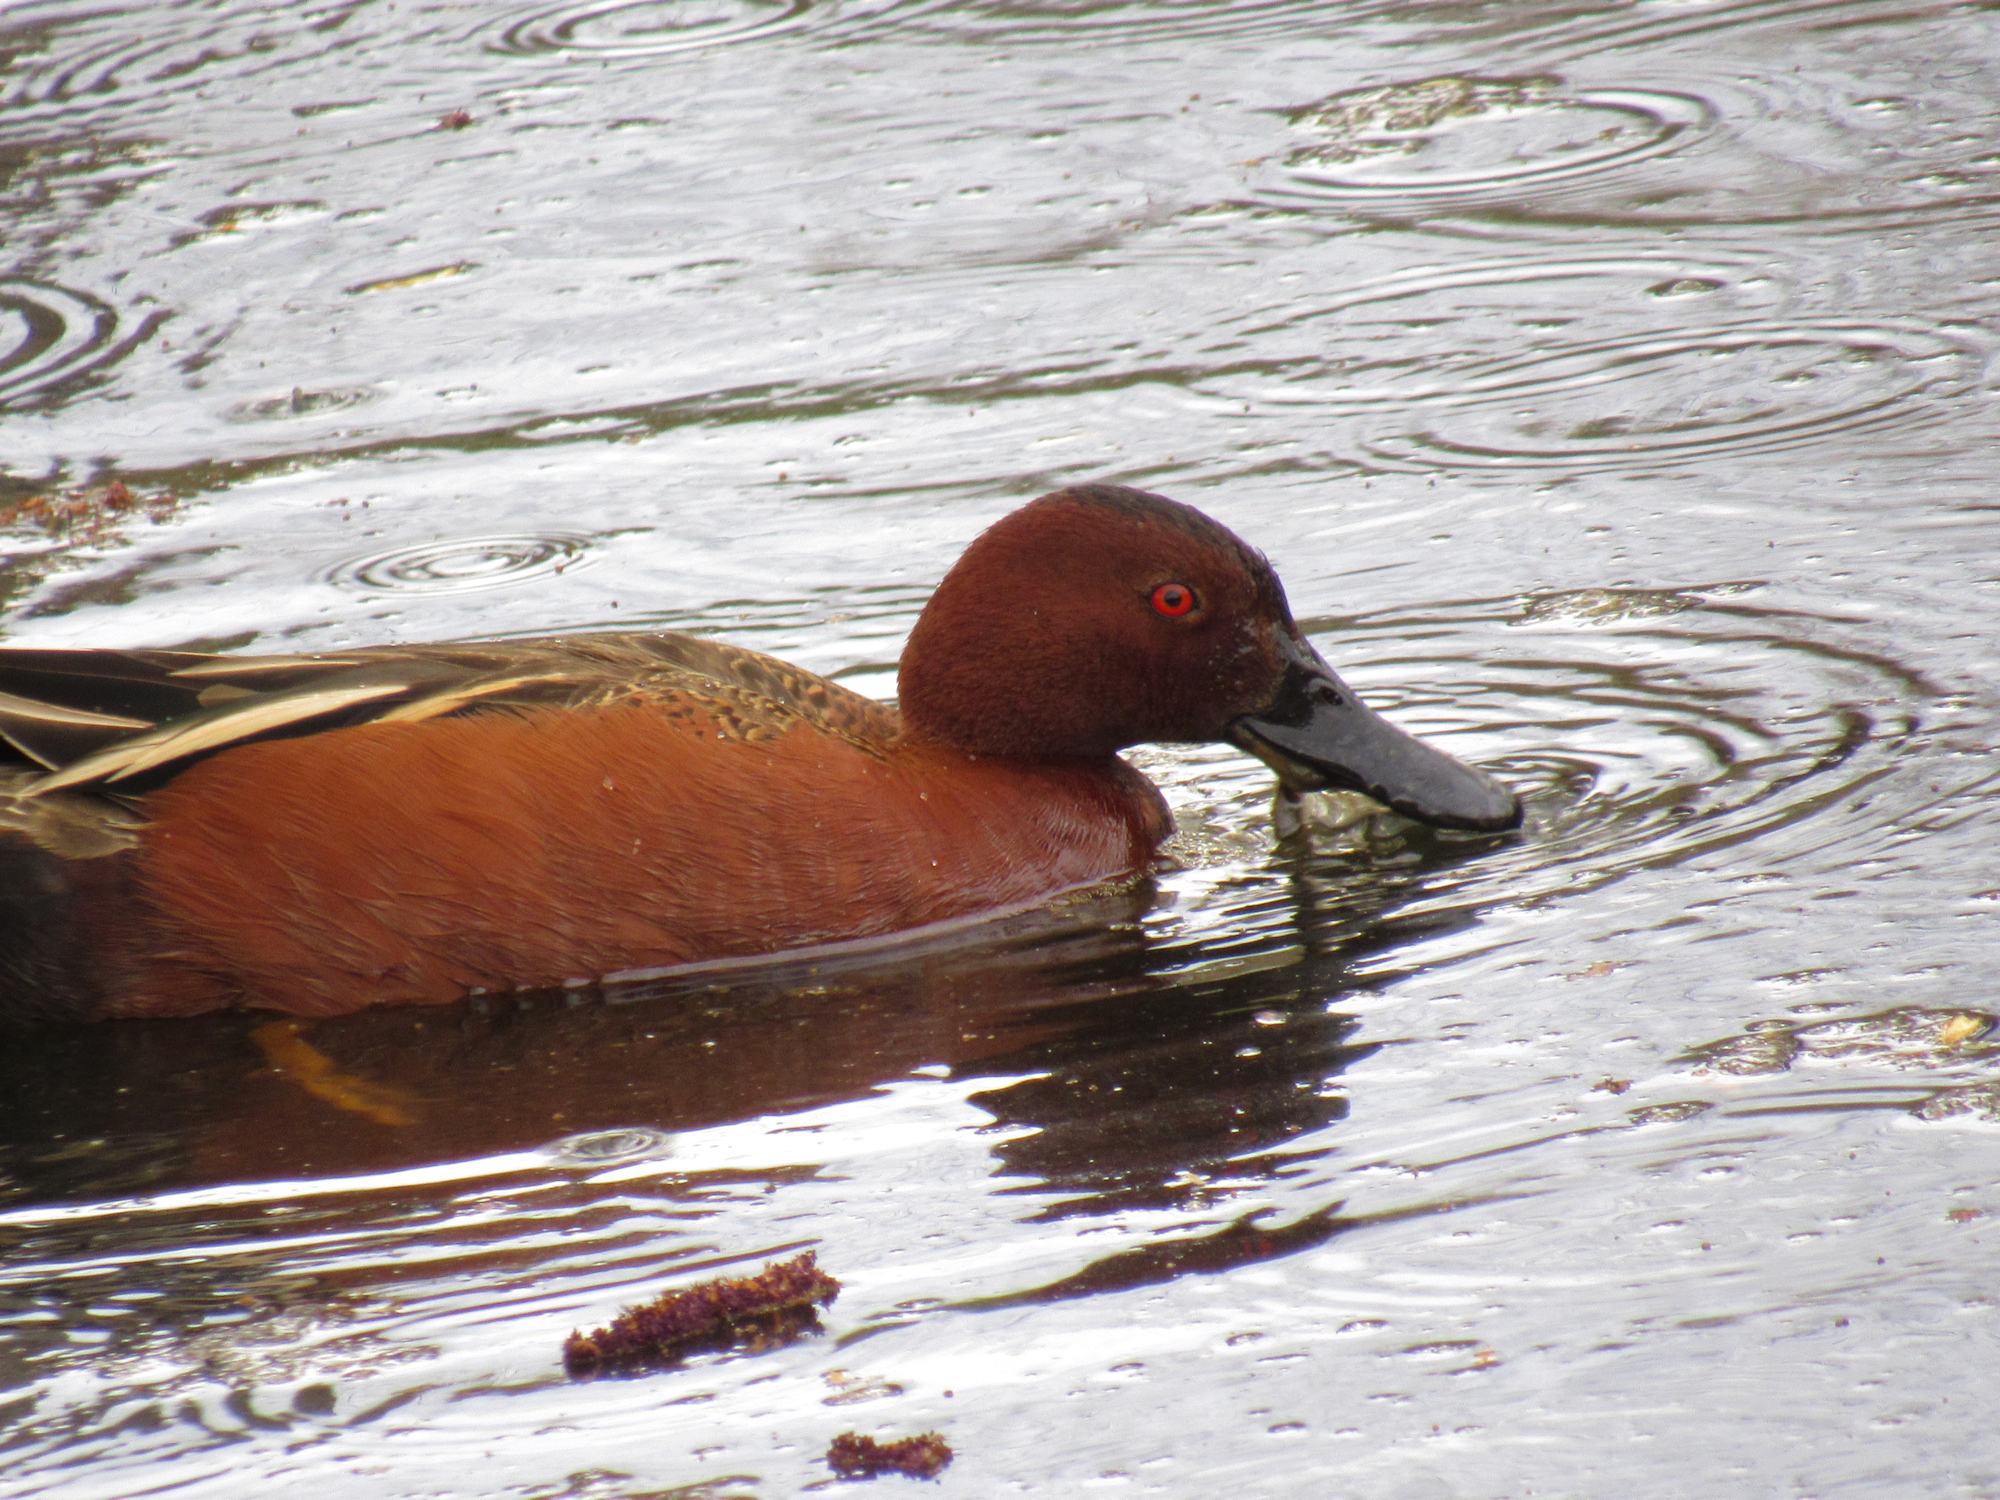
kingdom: Animalia
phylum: Chordata
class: Aves
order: Anseriformes
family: Anatidae
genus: Spatula
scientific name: Spatula cyanoptera
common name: Cinnamon teal
